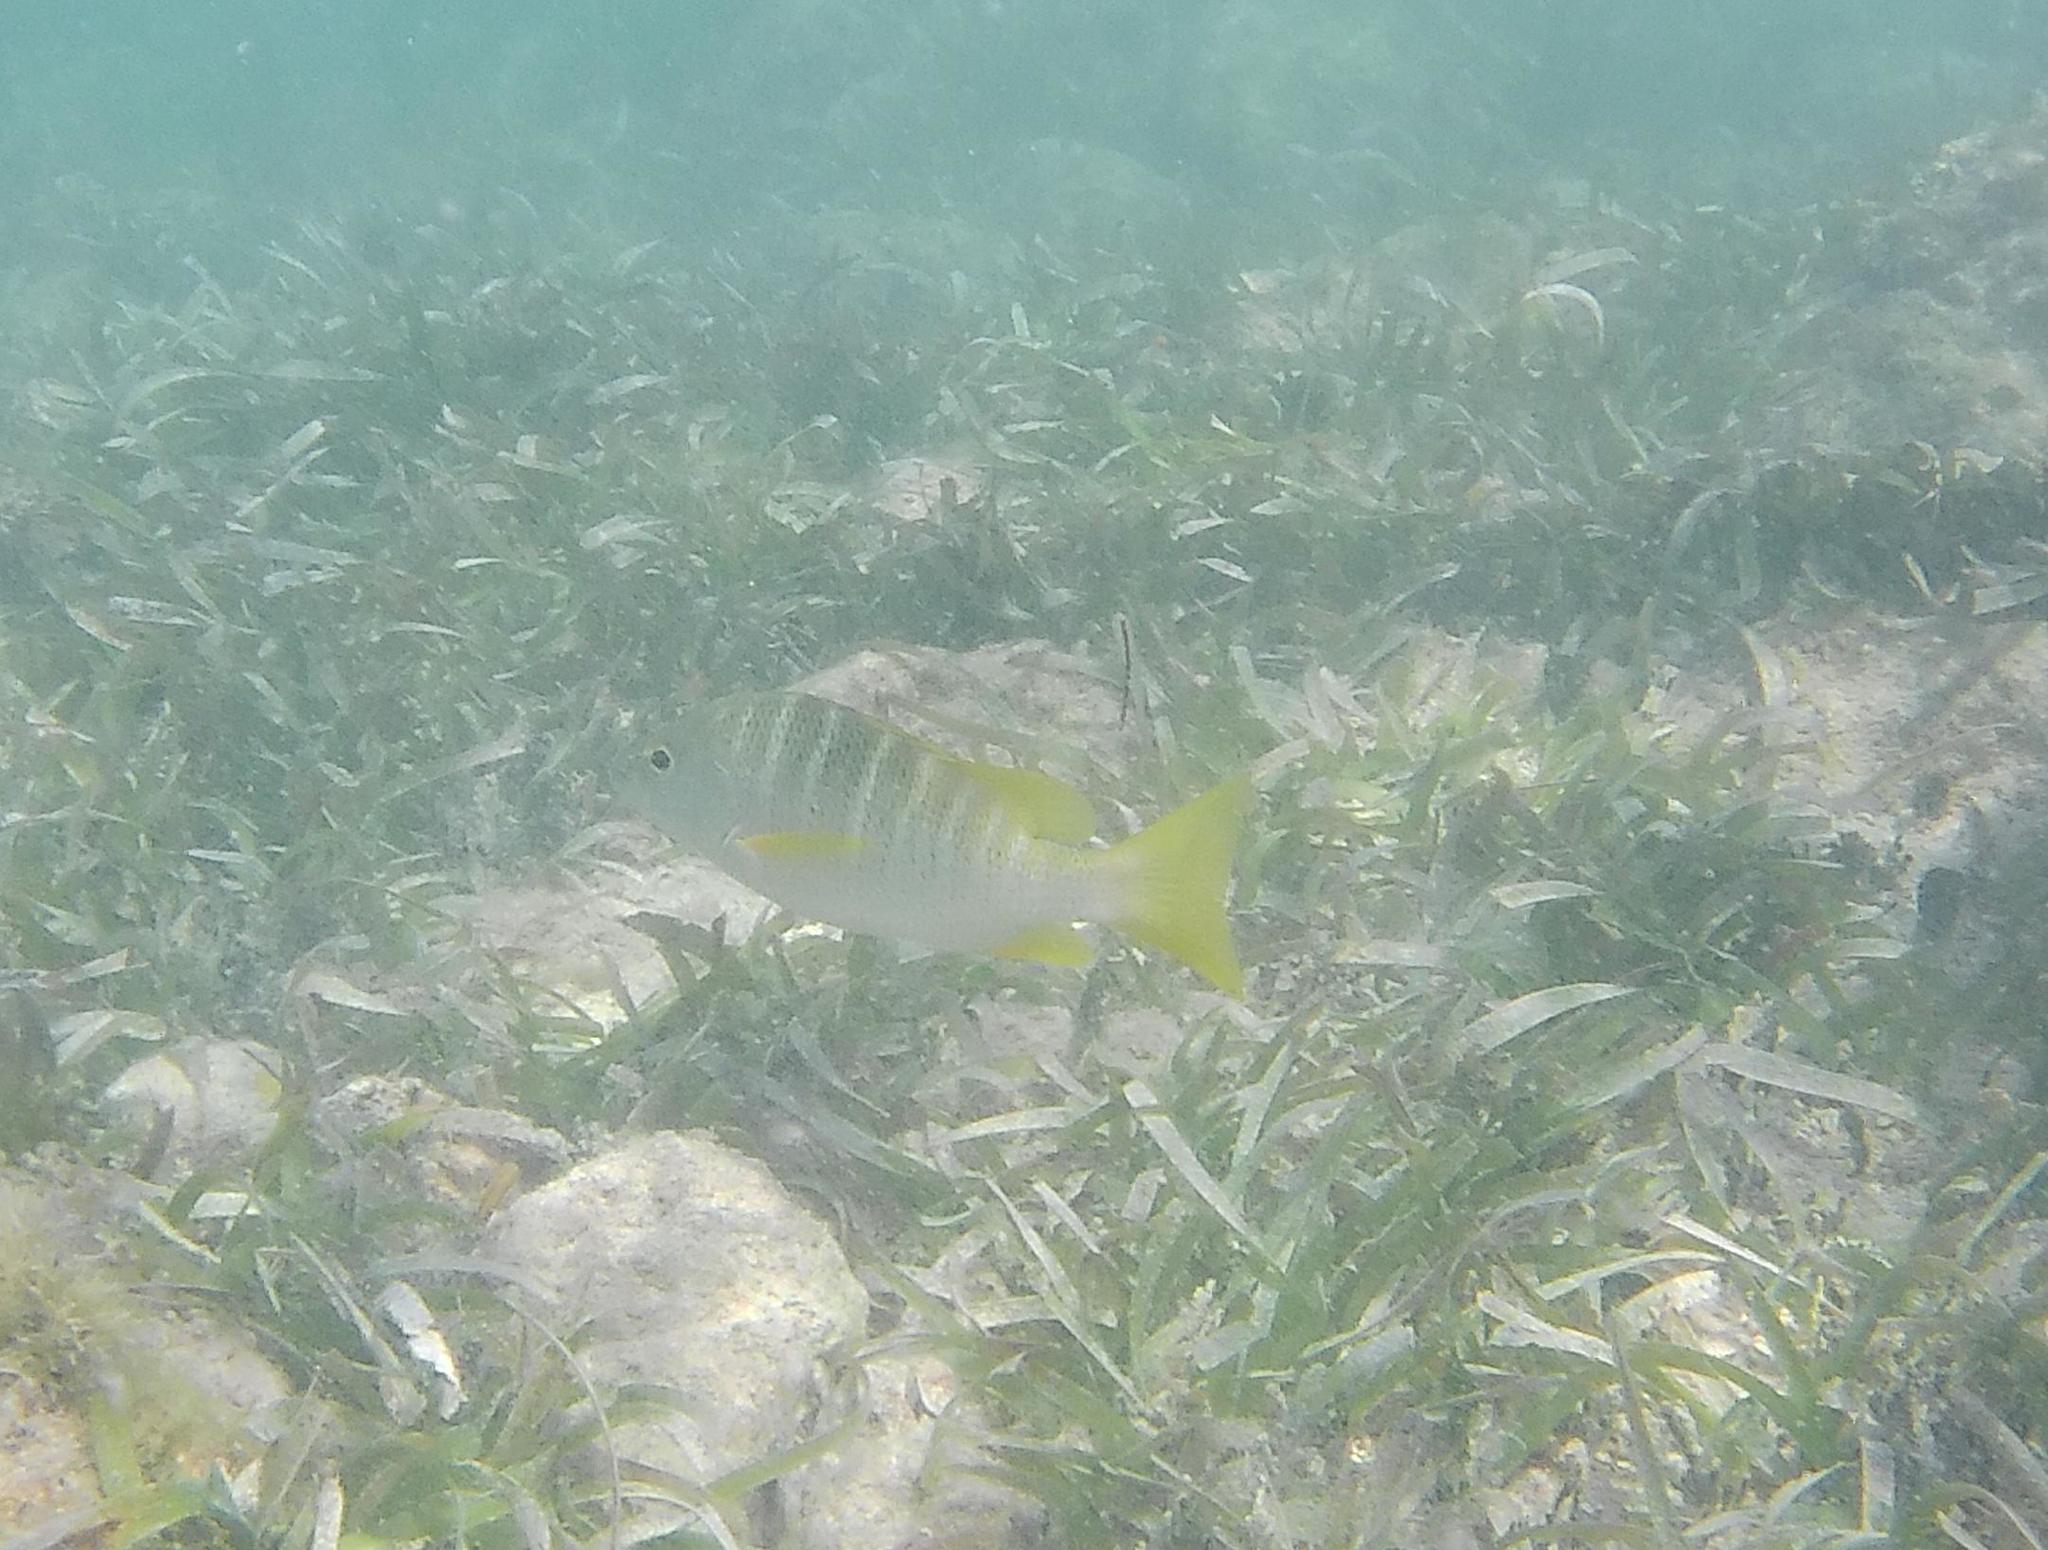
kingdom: Animalia
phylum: Chordata
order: Perciformes
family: Lutjanidae
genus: Lutjanus
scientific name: Lutjanus apodus
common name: Schoolmaster
